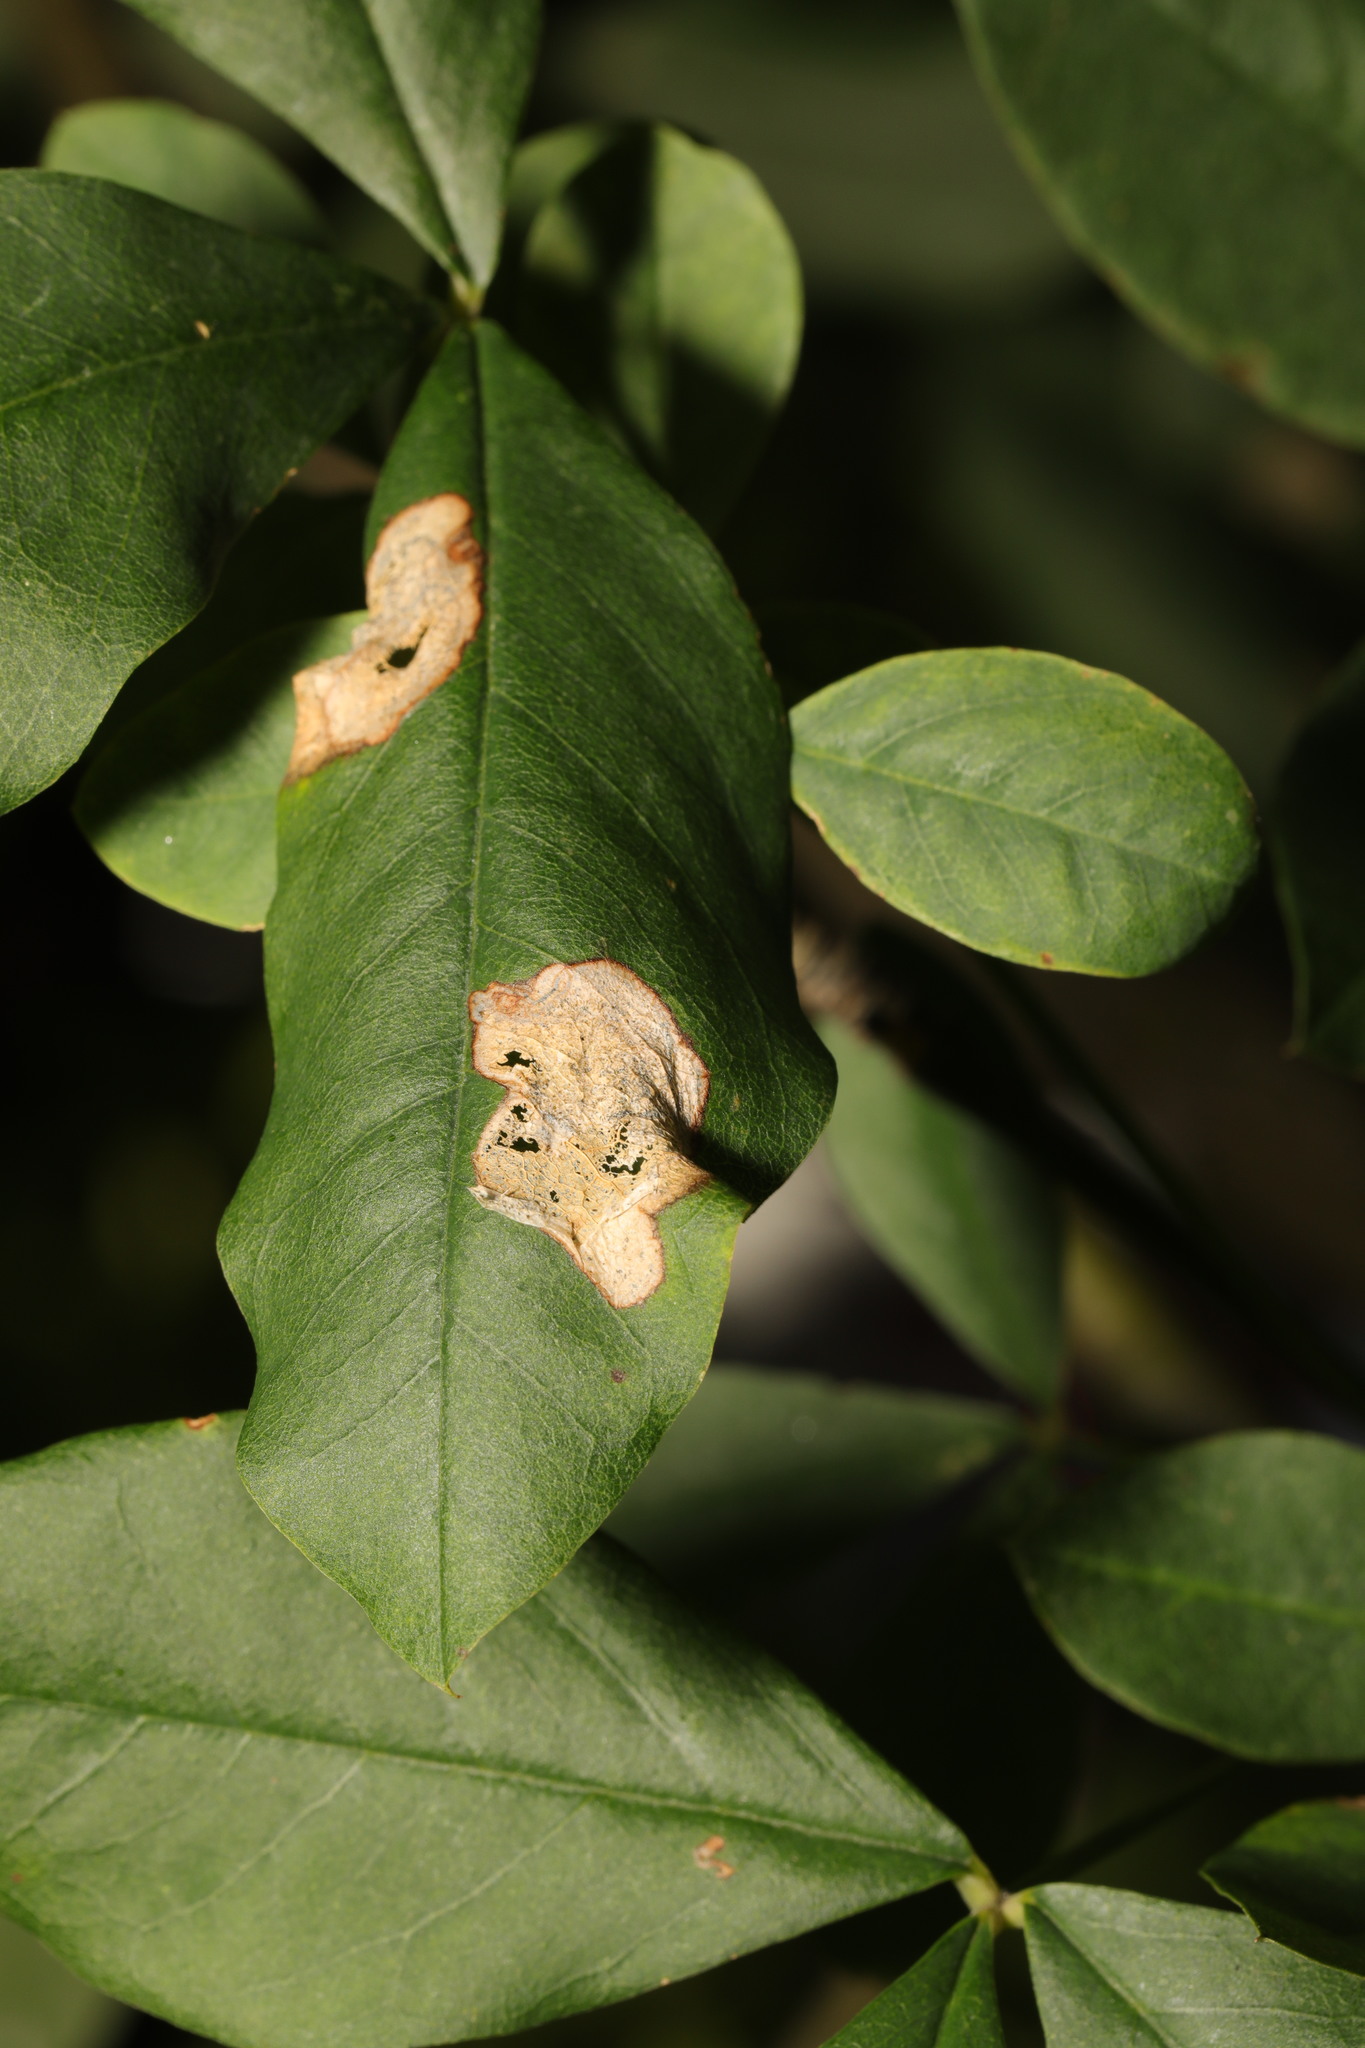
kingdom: Animalia
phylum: Arthropoda
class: Insecta
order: Lepidoptera
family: Lyonetiidae
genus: Leucoptera
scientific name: Leucoptera laburnella
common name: Laburnum leaf miner
